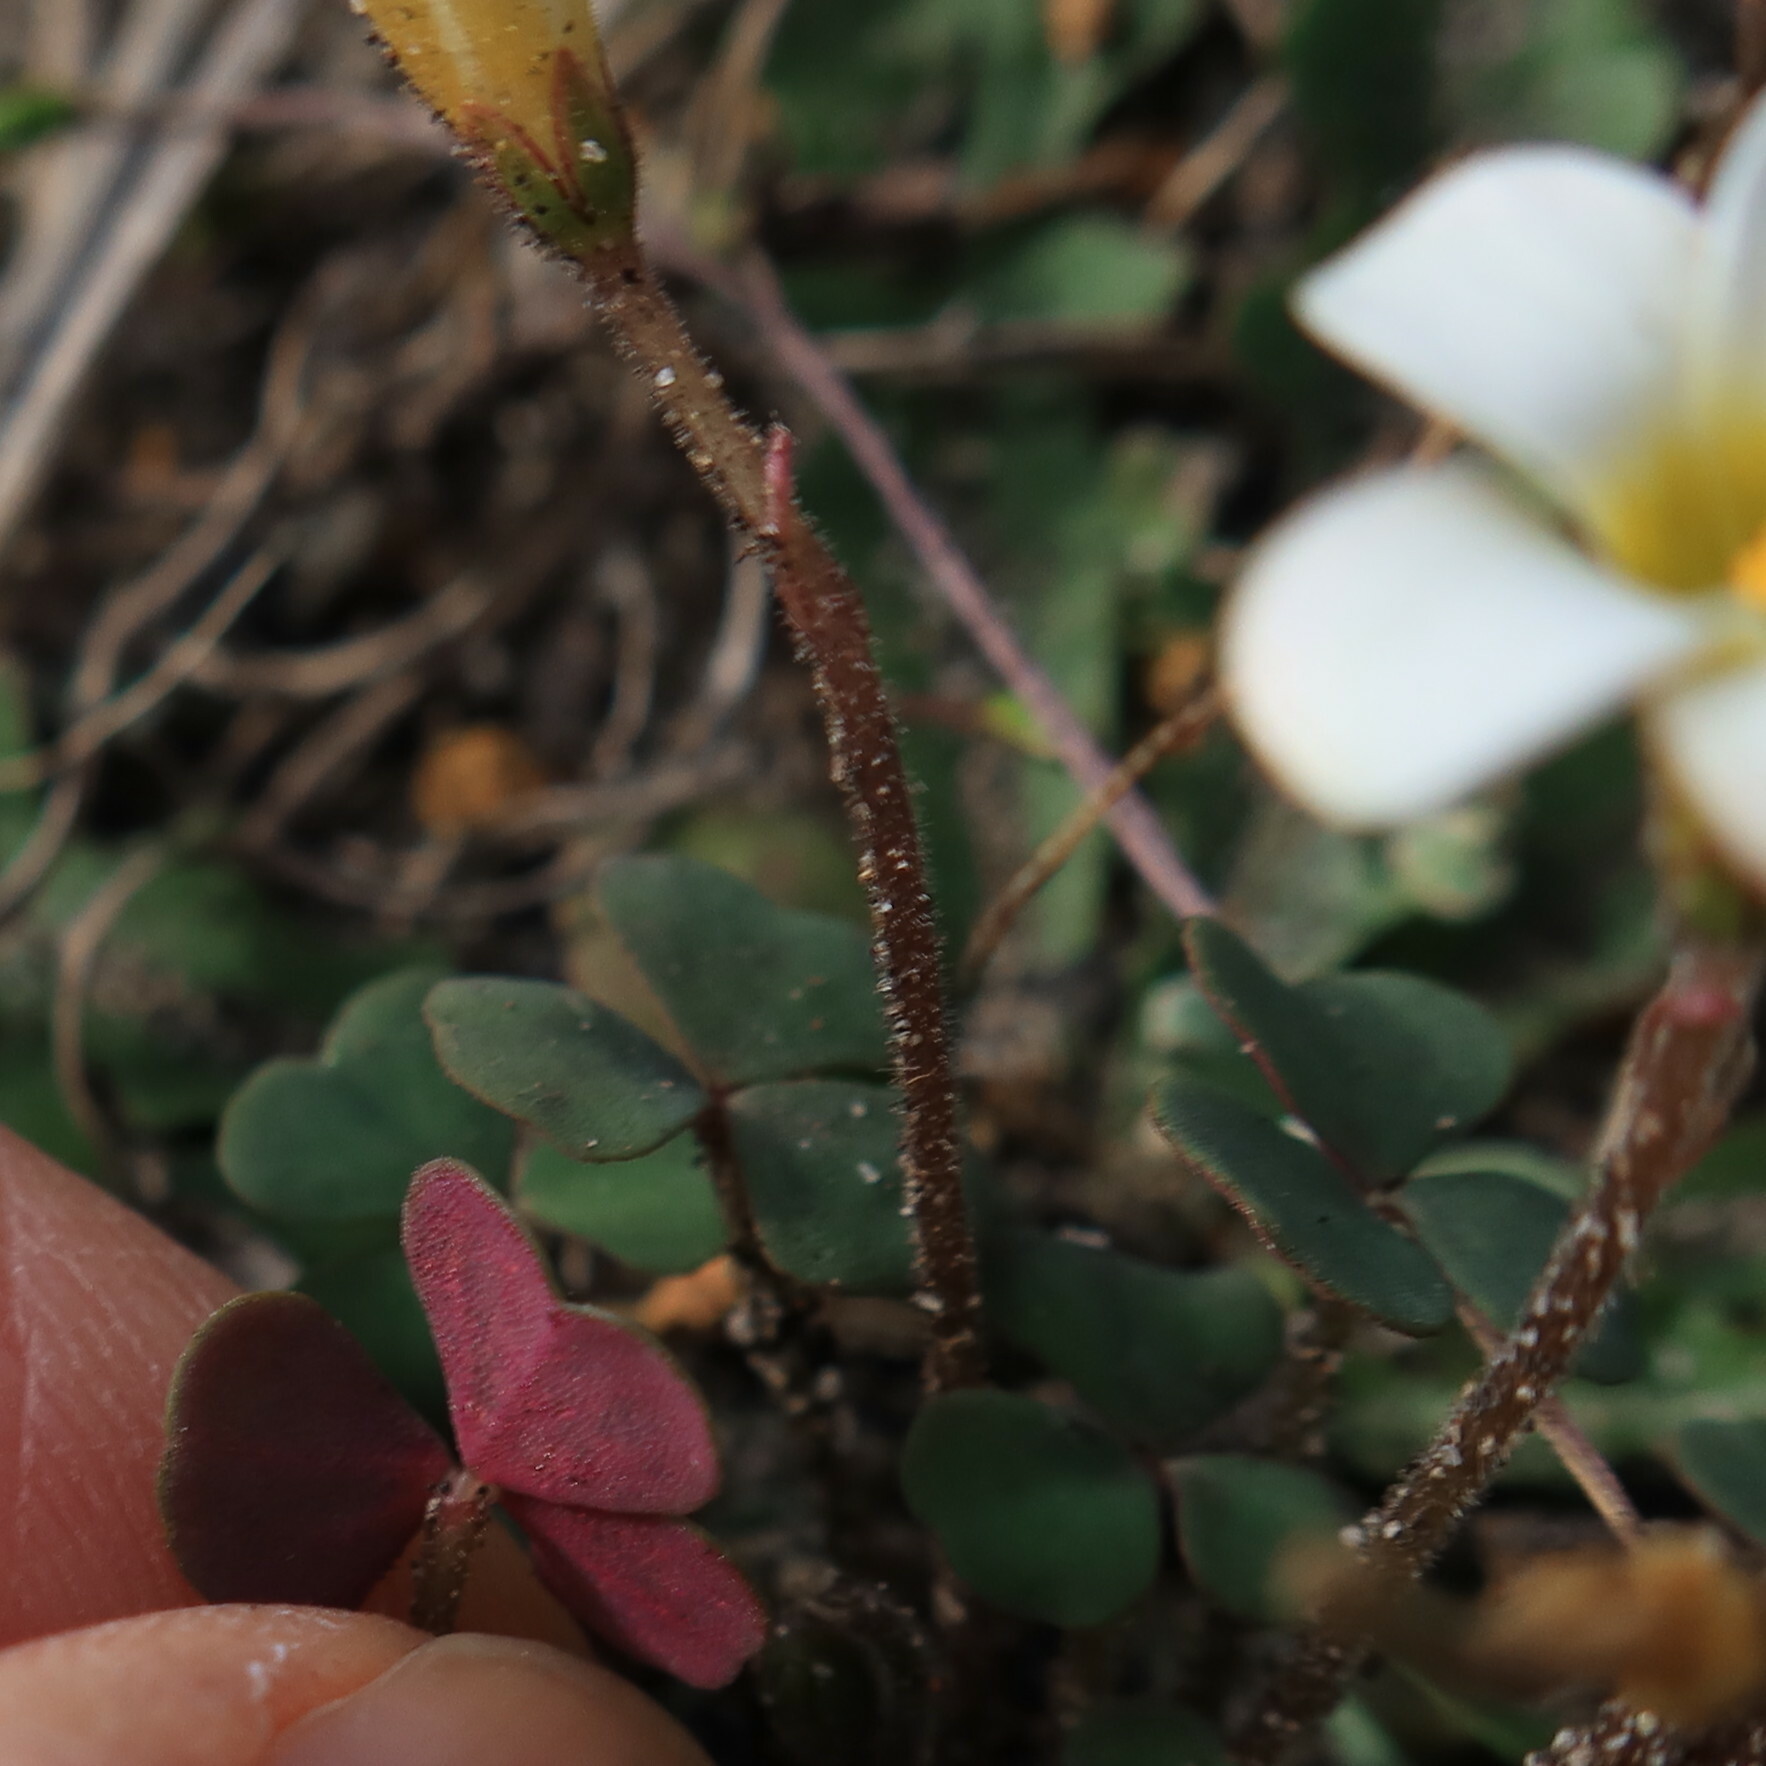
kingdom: Plantae
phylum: Tracheophyta
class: Magnoliopsida
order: Oxalidales
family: Oxalidaceae
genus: Oxalis
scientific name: Oxalis punctata
